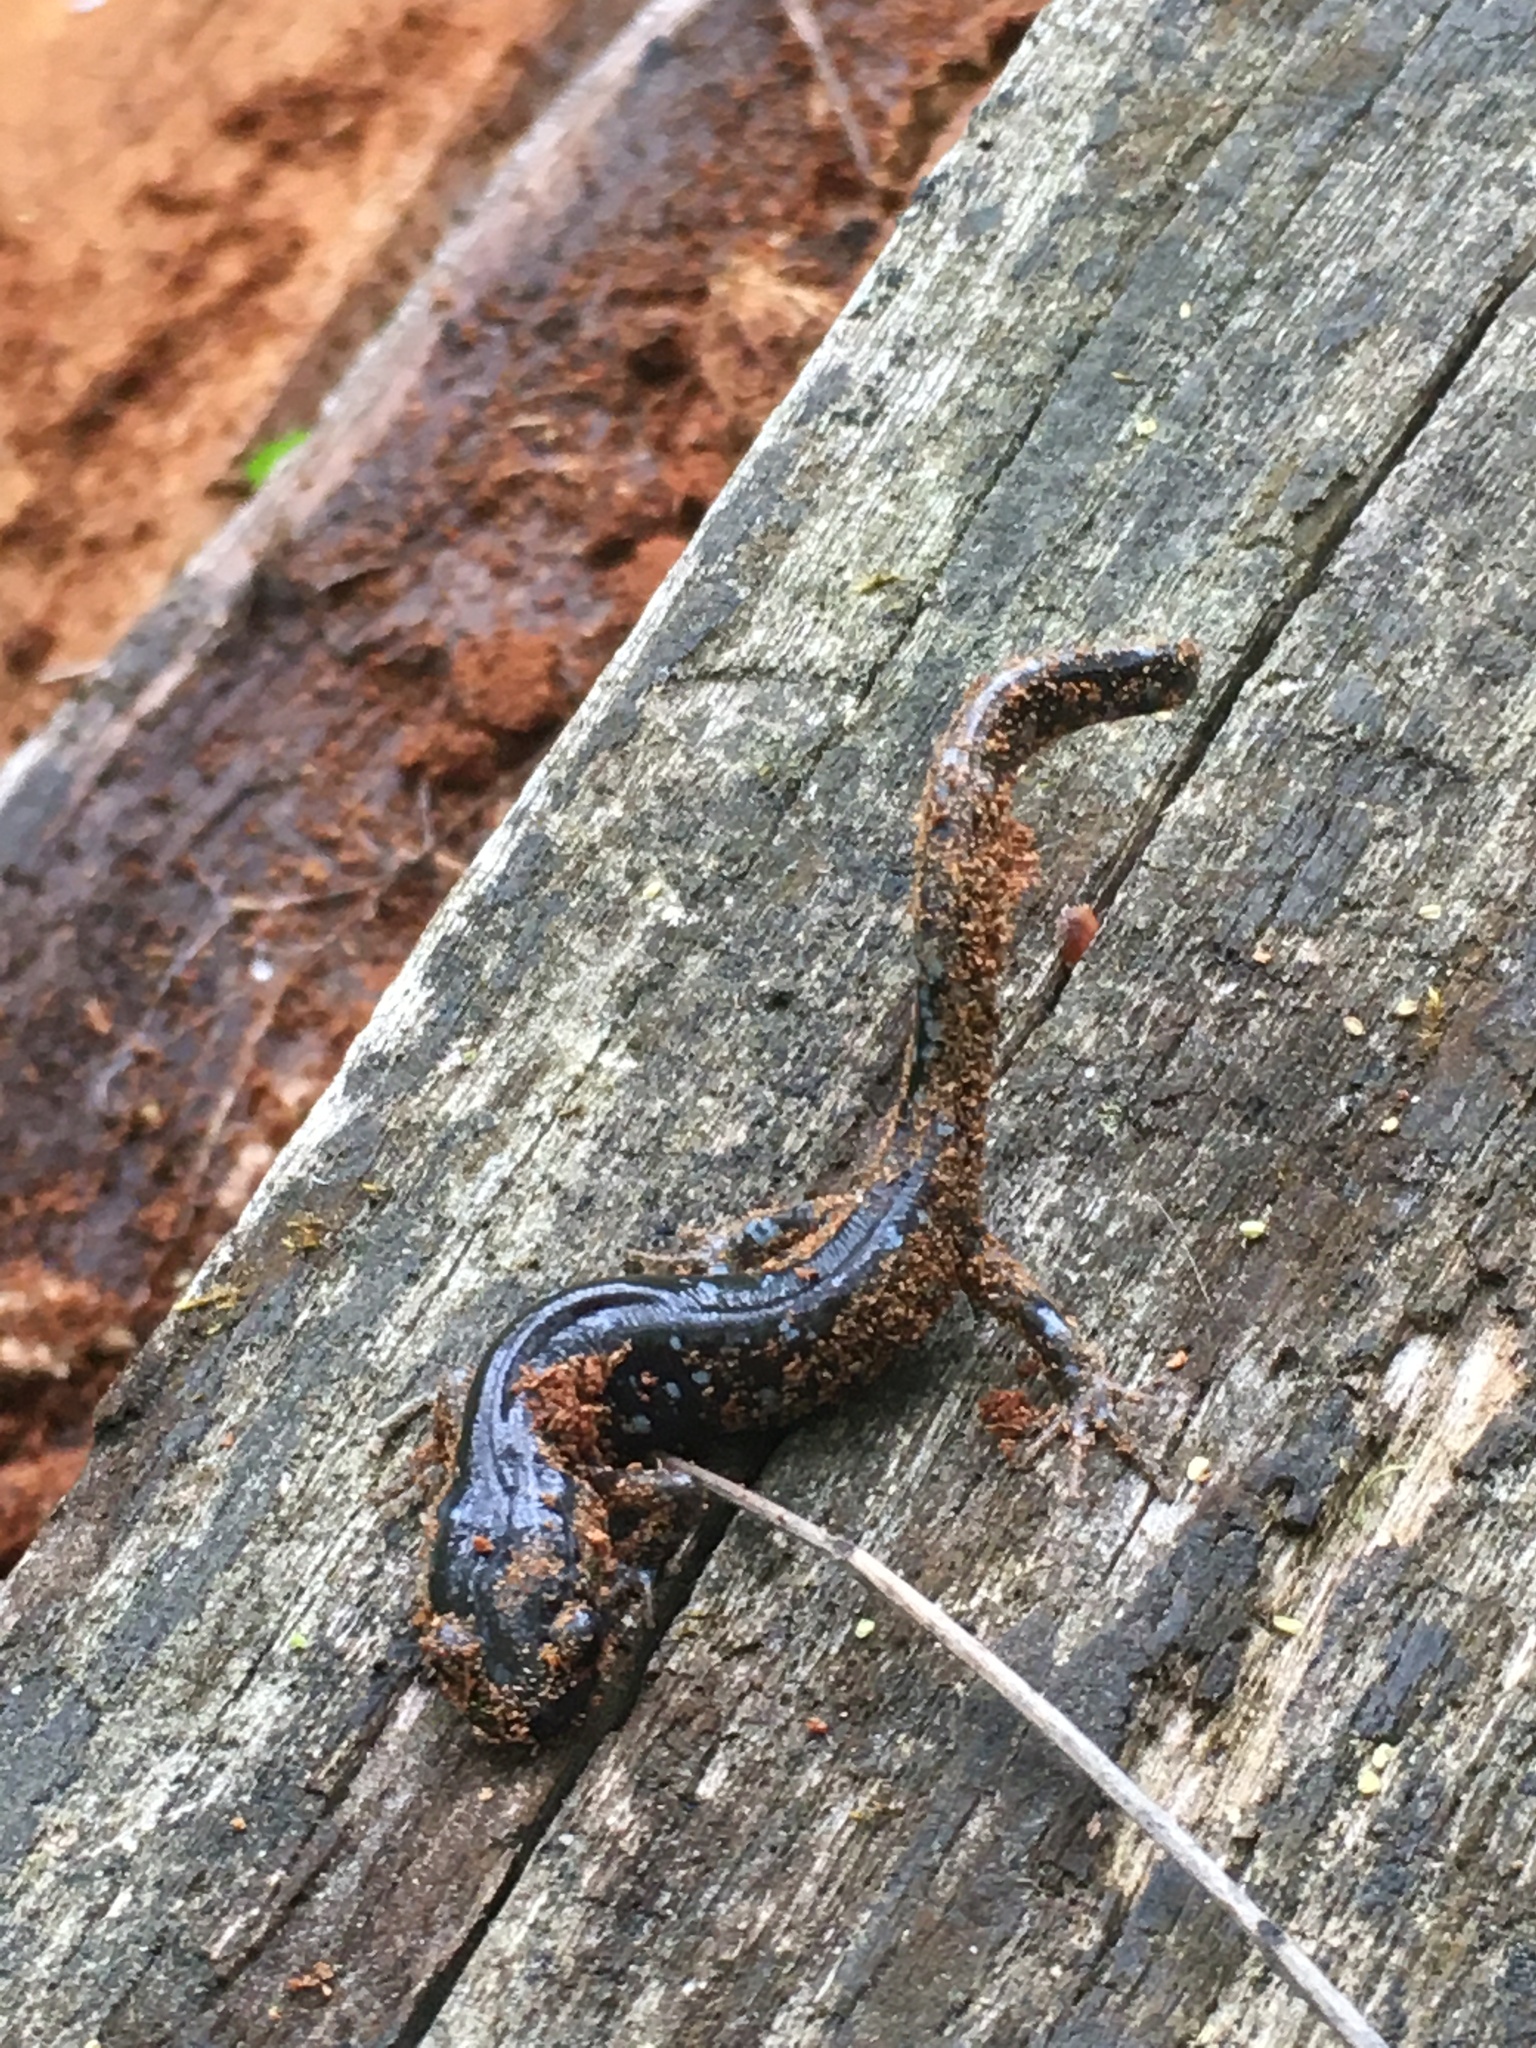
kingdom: Animalia
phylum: Chordata
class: Amphibia
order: Caudata
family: Ambystomatidae
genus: Ambystoma
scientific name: Ambystoma laterale
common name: Blue-spotted salamander
